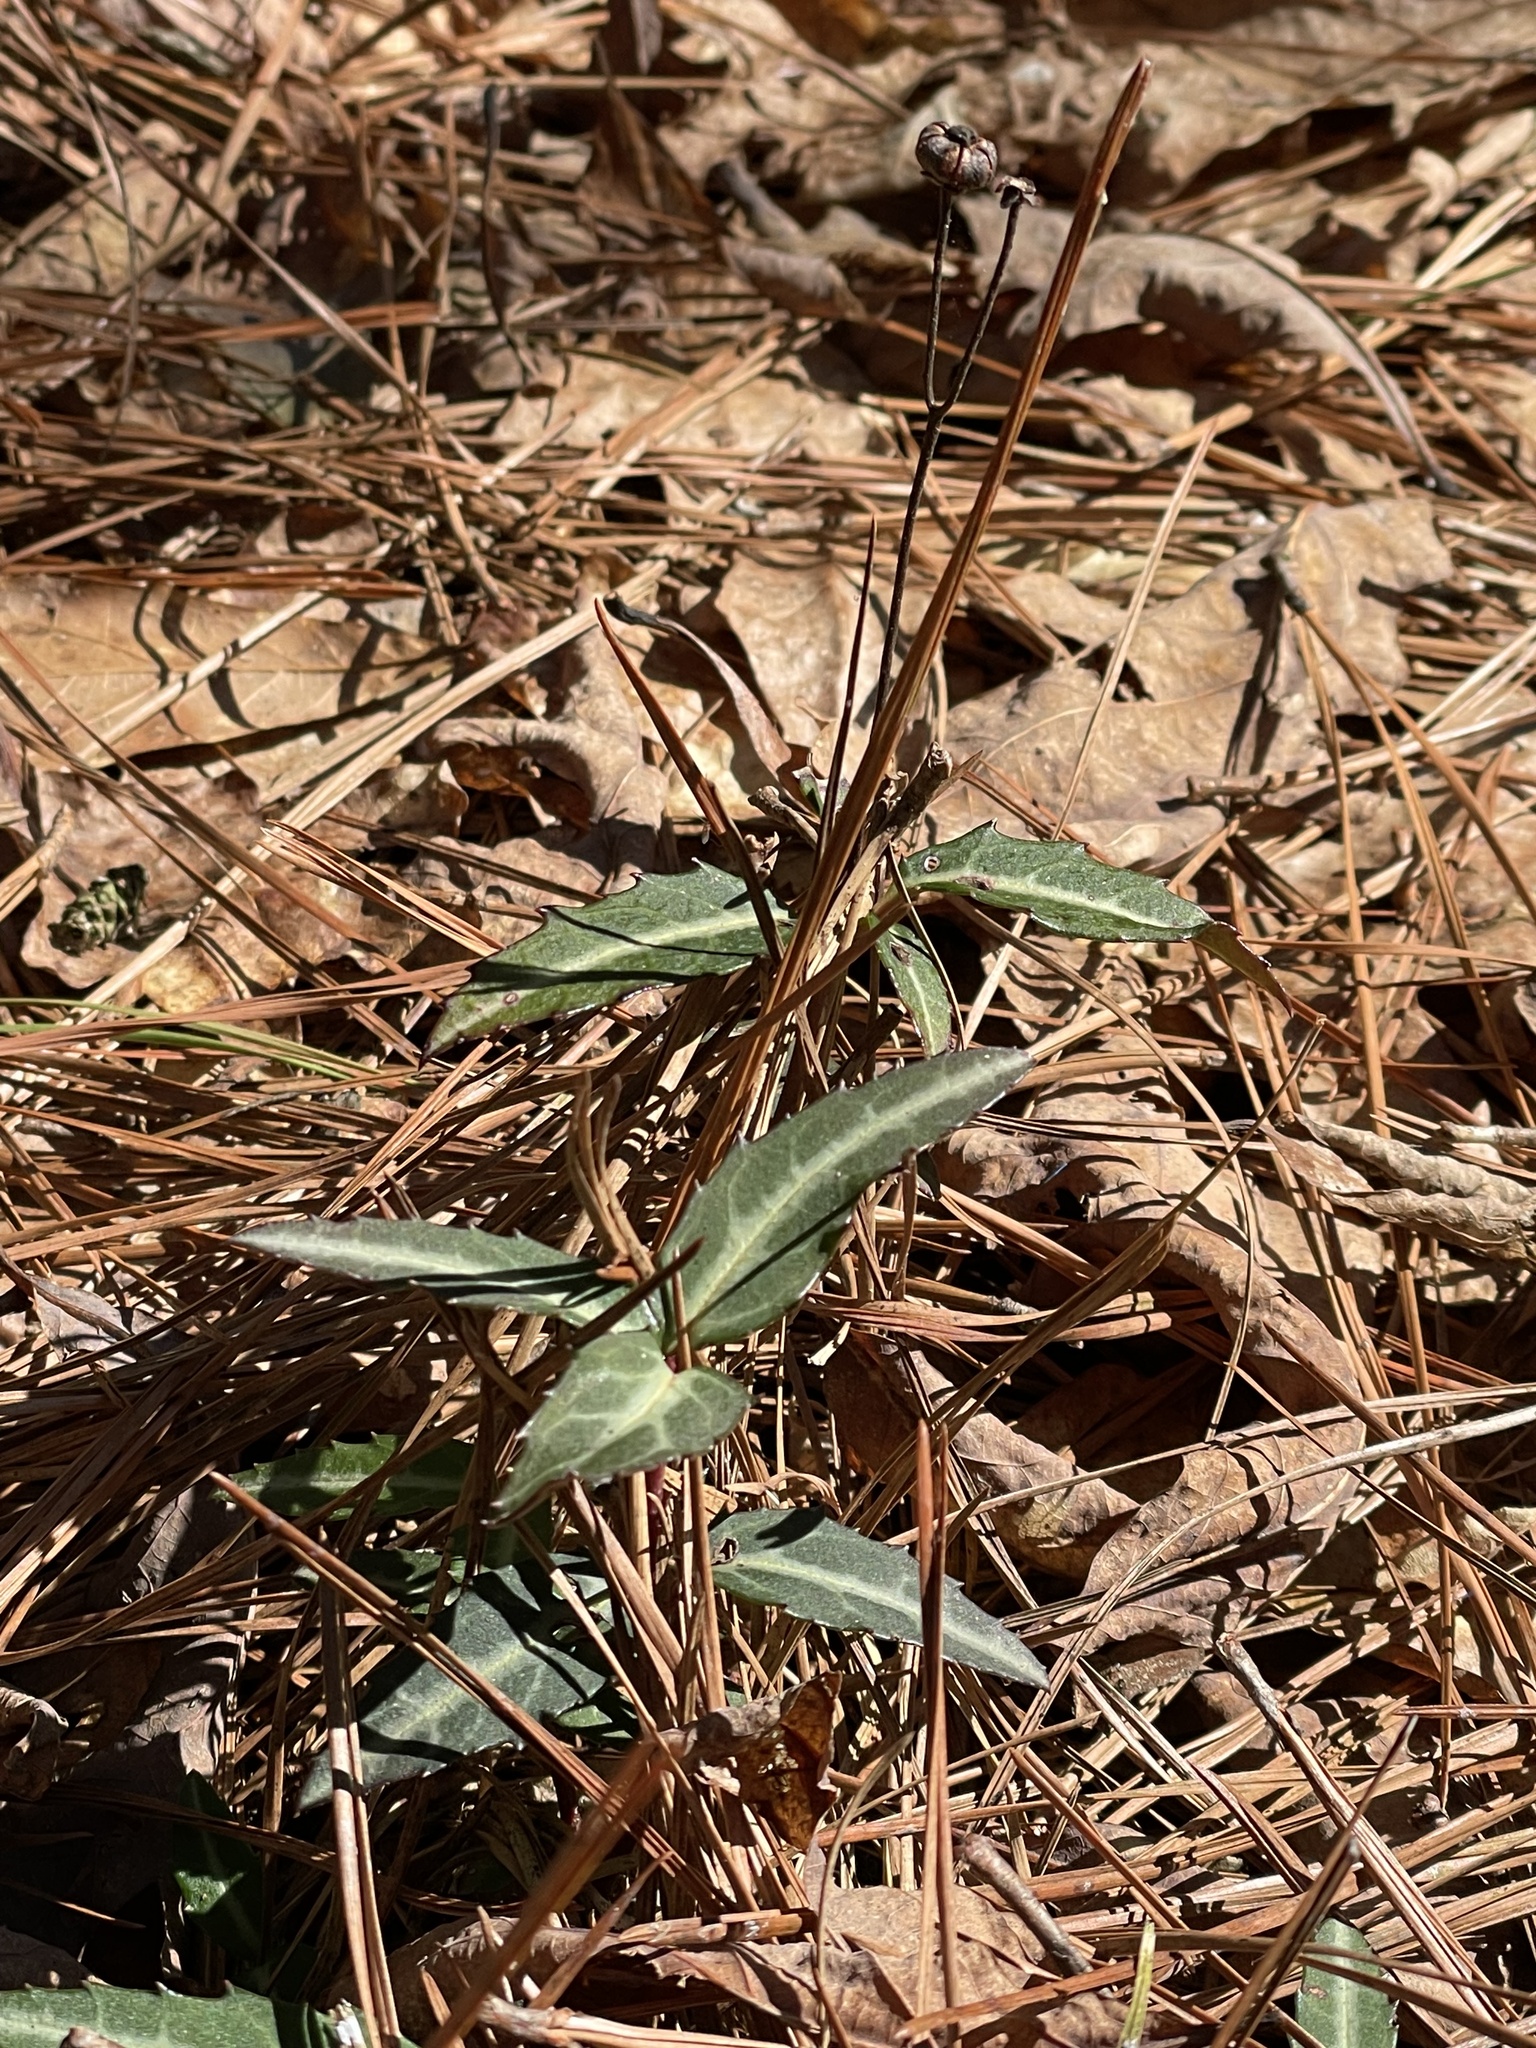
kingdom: Plantae
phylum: Tracheophyta
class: Magnoliopsida
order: Ericales
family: Ericaceae
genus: Chimaphila
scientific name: Chimaphila maculata
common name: Spotted pipsissewa
